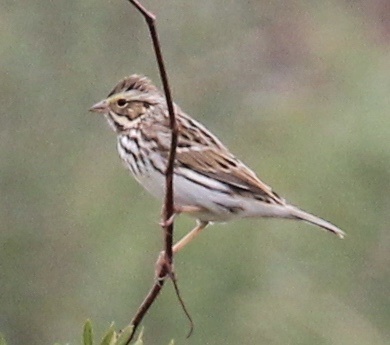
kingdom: Animalia
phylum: Chordata
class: Aves
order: Passeriformes
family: Passerellidae
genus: Passerculus
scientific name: Passerculus sandwichensis
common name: Savannah sparrow
